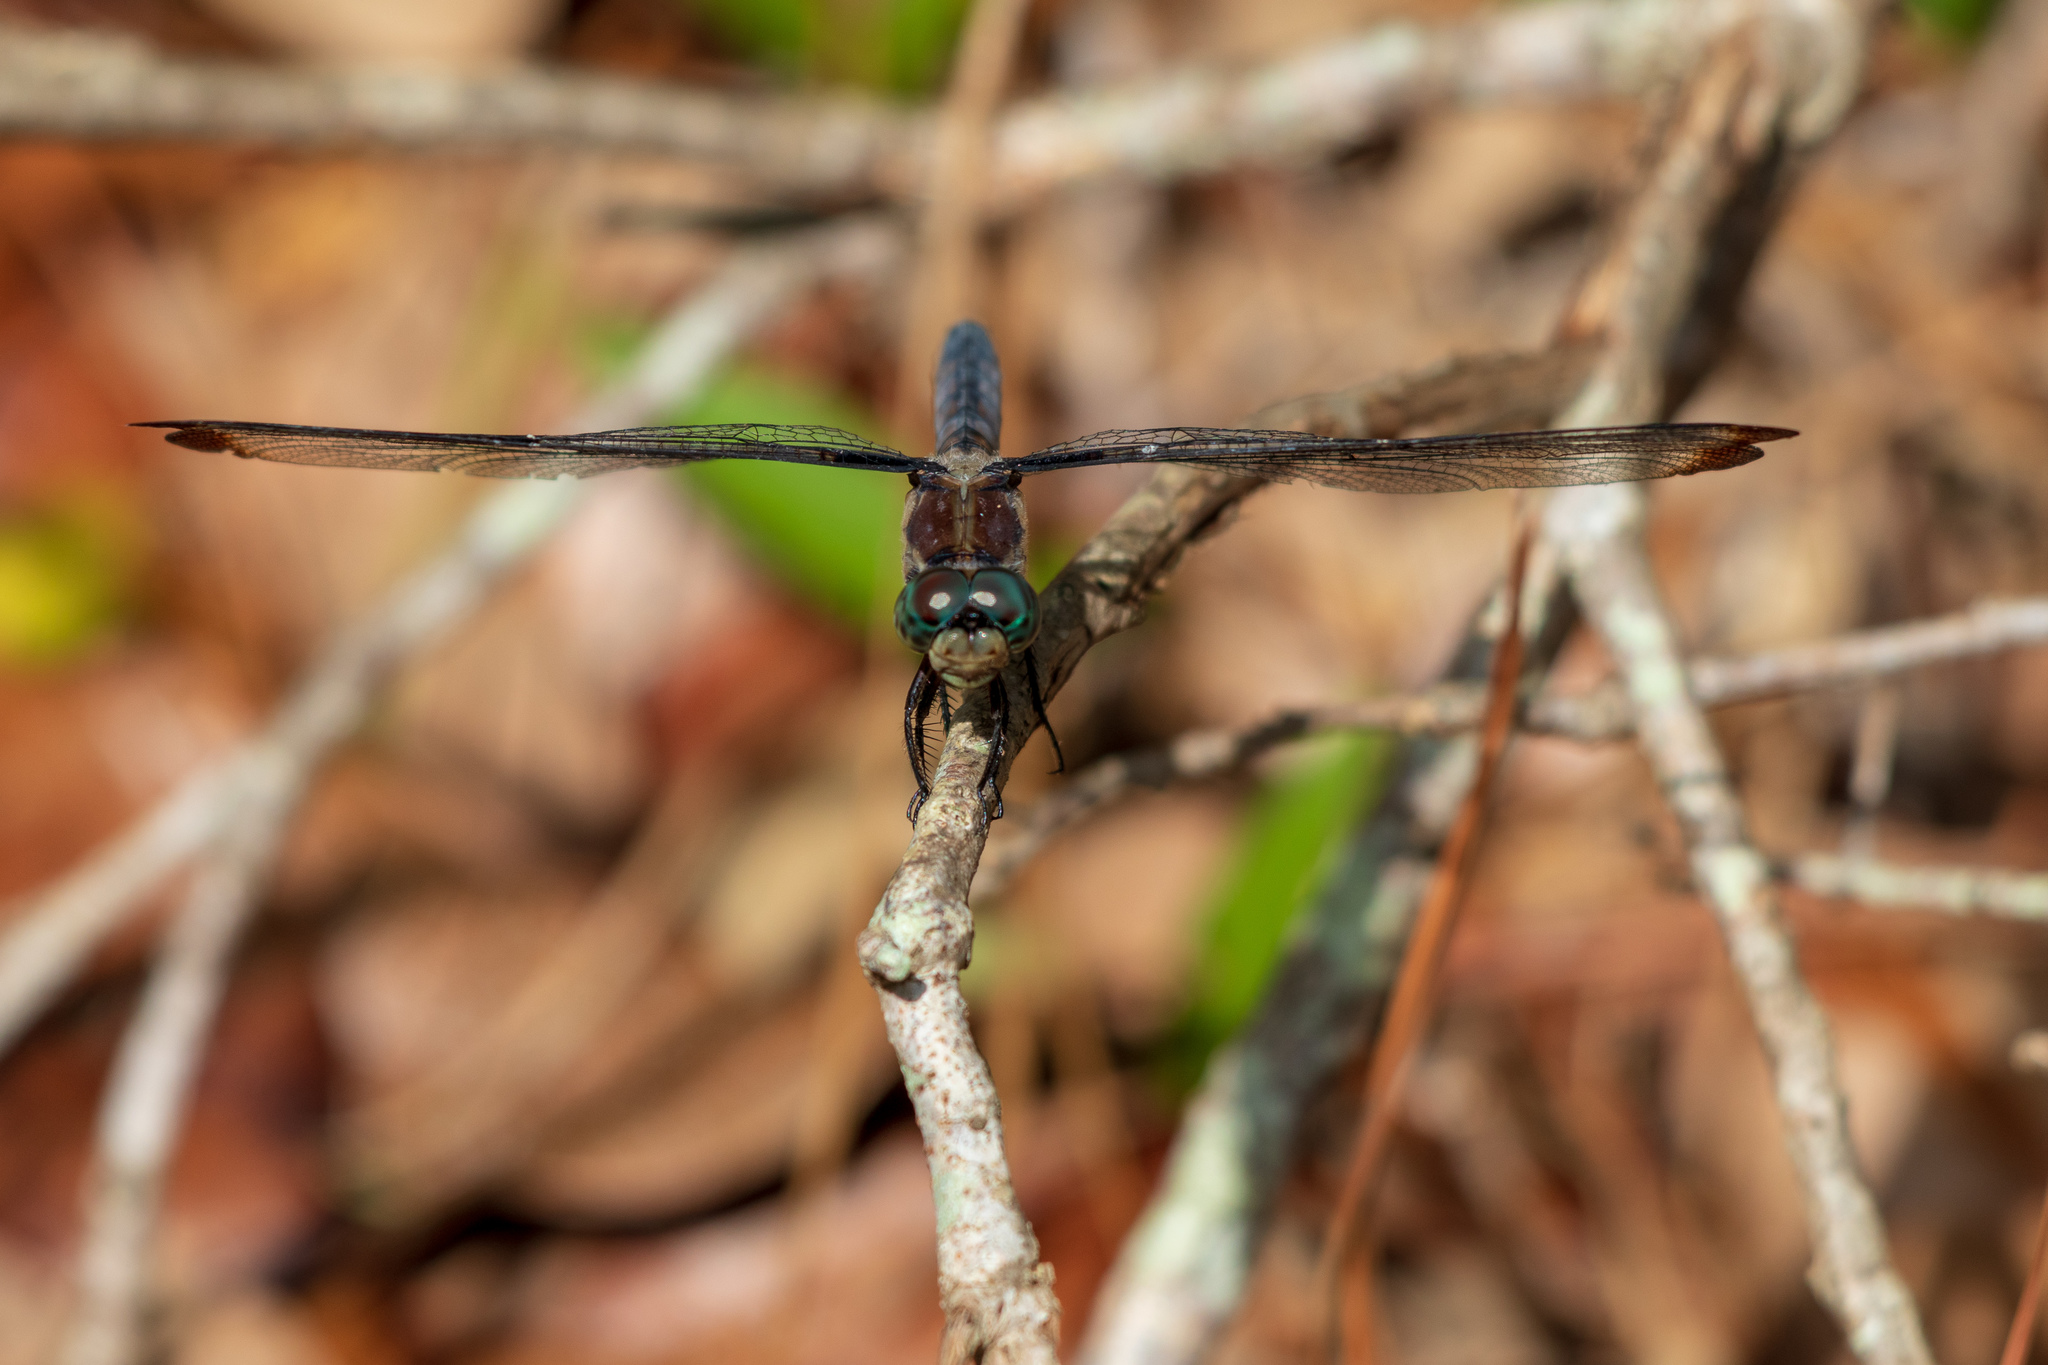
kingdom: Animalia
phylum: Arthropoda
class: Insecta
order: Odonata
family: Libellulidae
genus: Libellula
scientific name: Libellula vibrans
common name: Great blue skimmer
